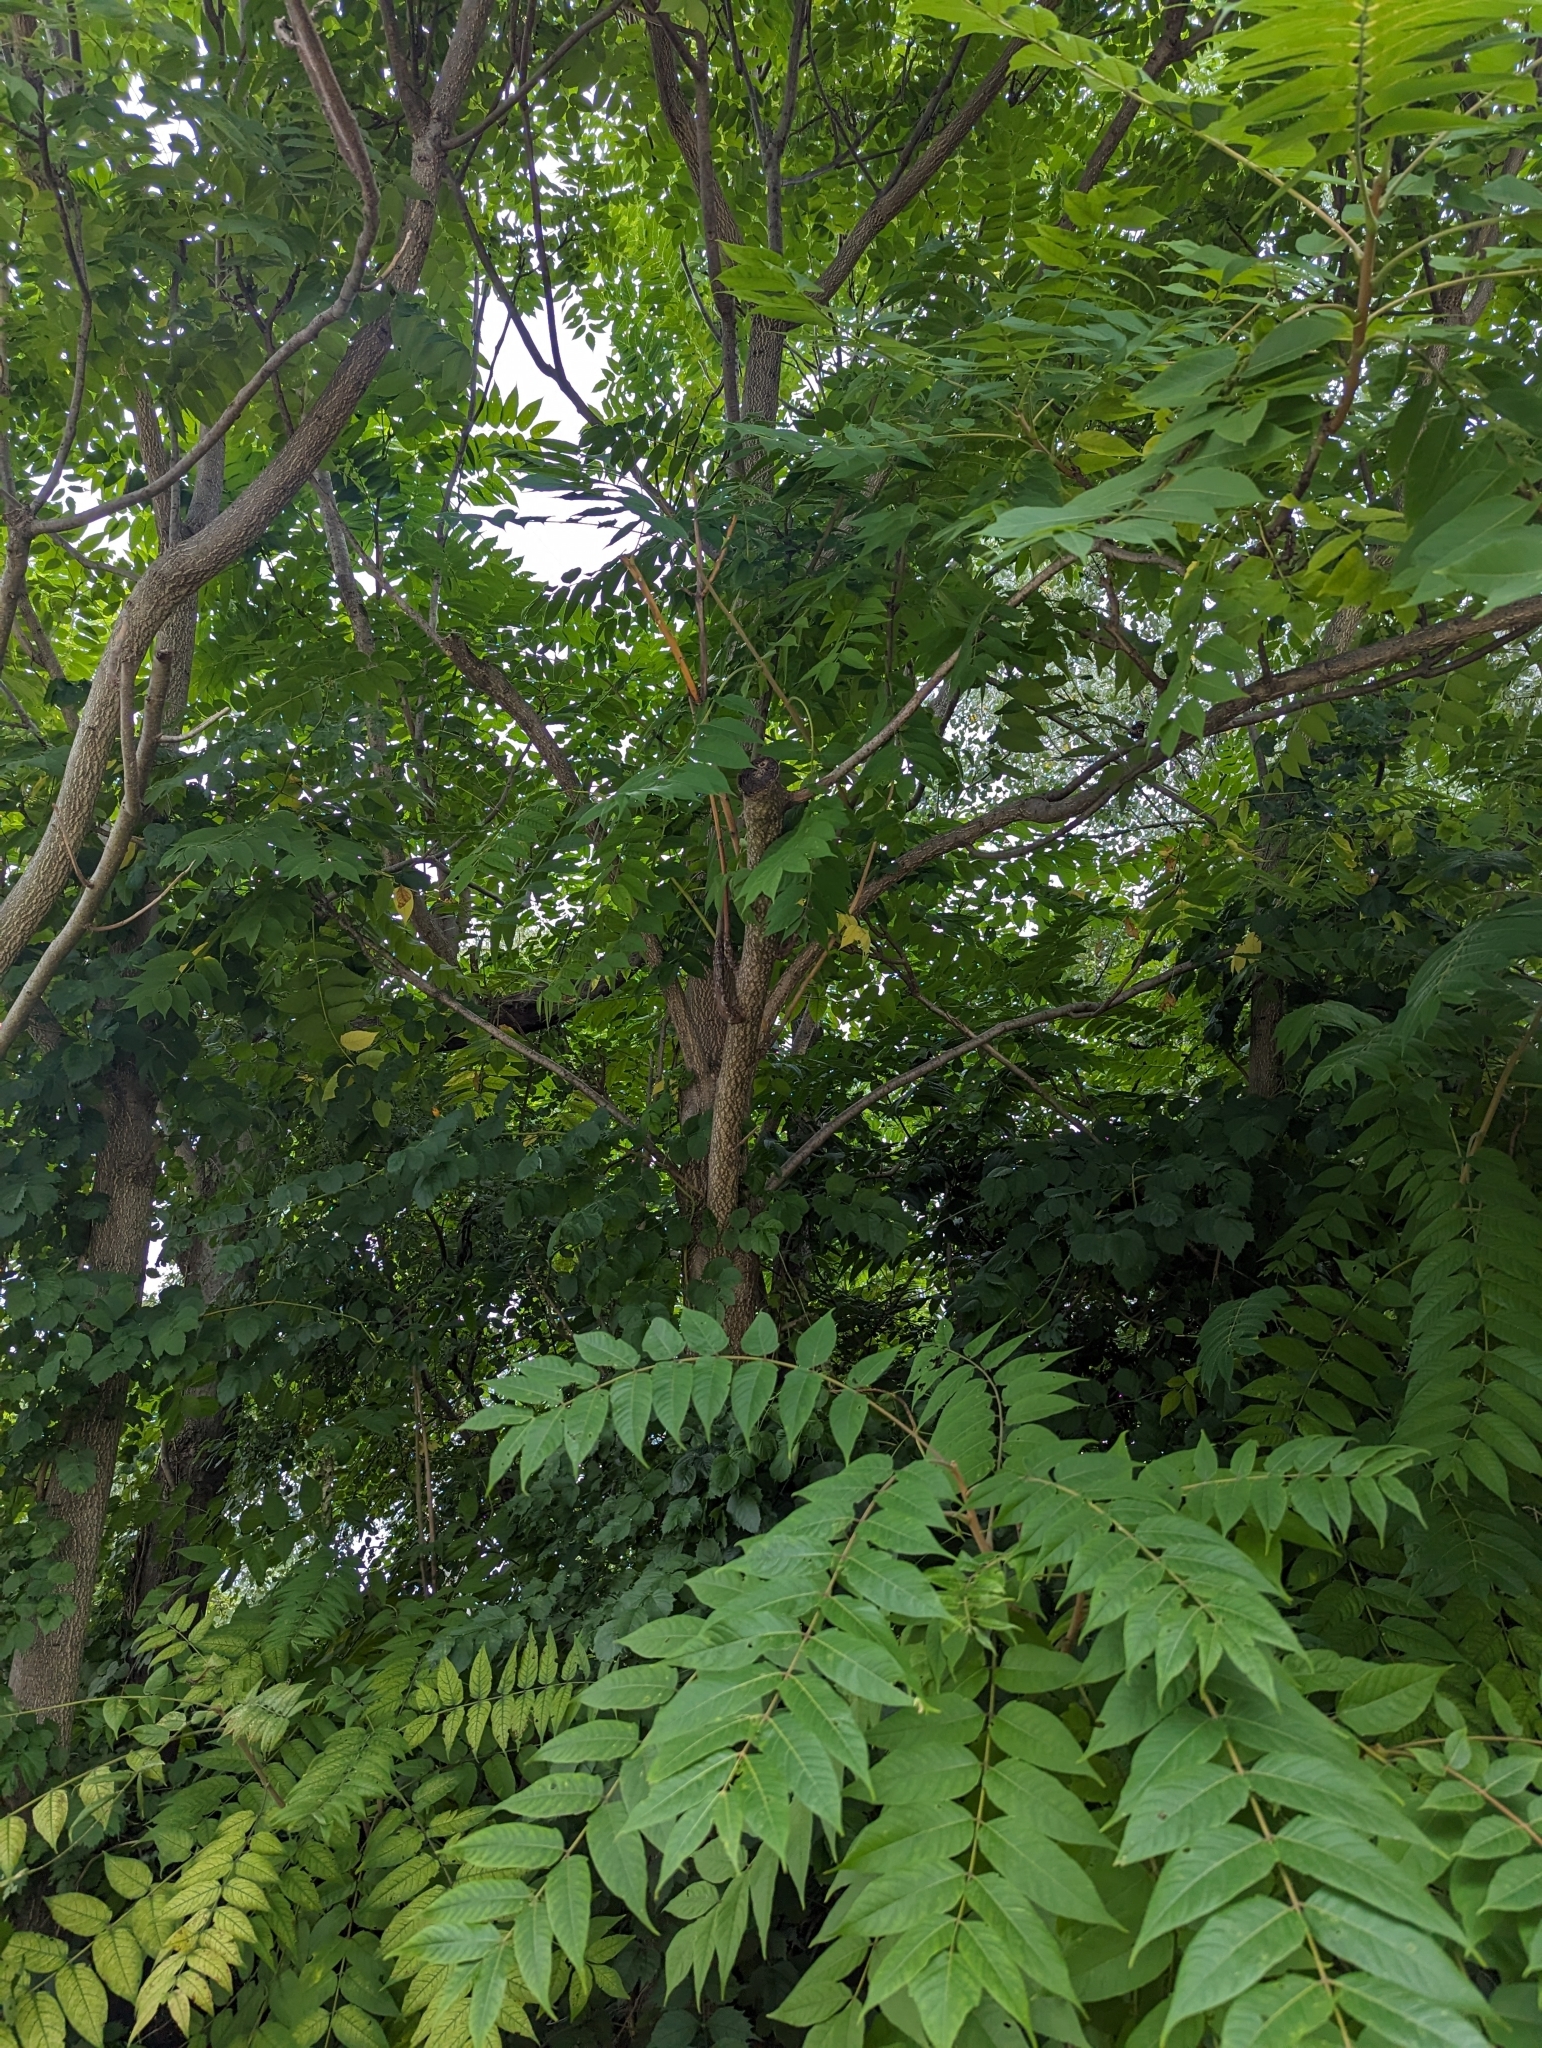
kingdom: Plantae
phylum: Tracheophyta
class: Magnoliopsida
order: Sapindales
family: Simaroubaceae
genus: Ailanthus
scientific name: Ailanthus altissima
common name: Tree-of-heaven
